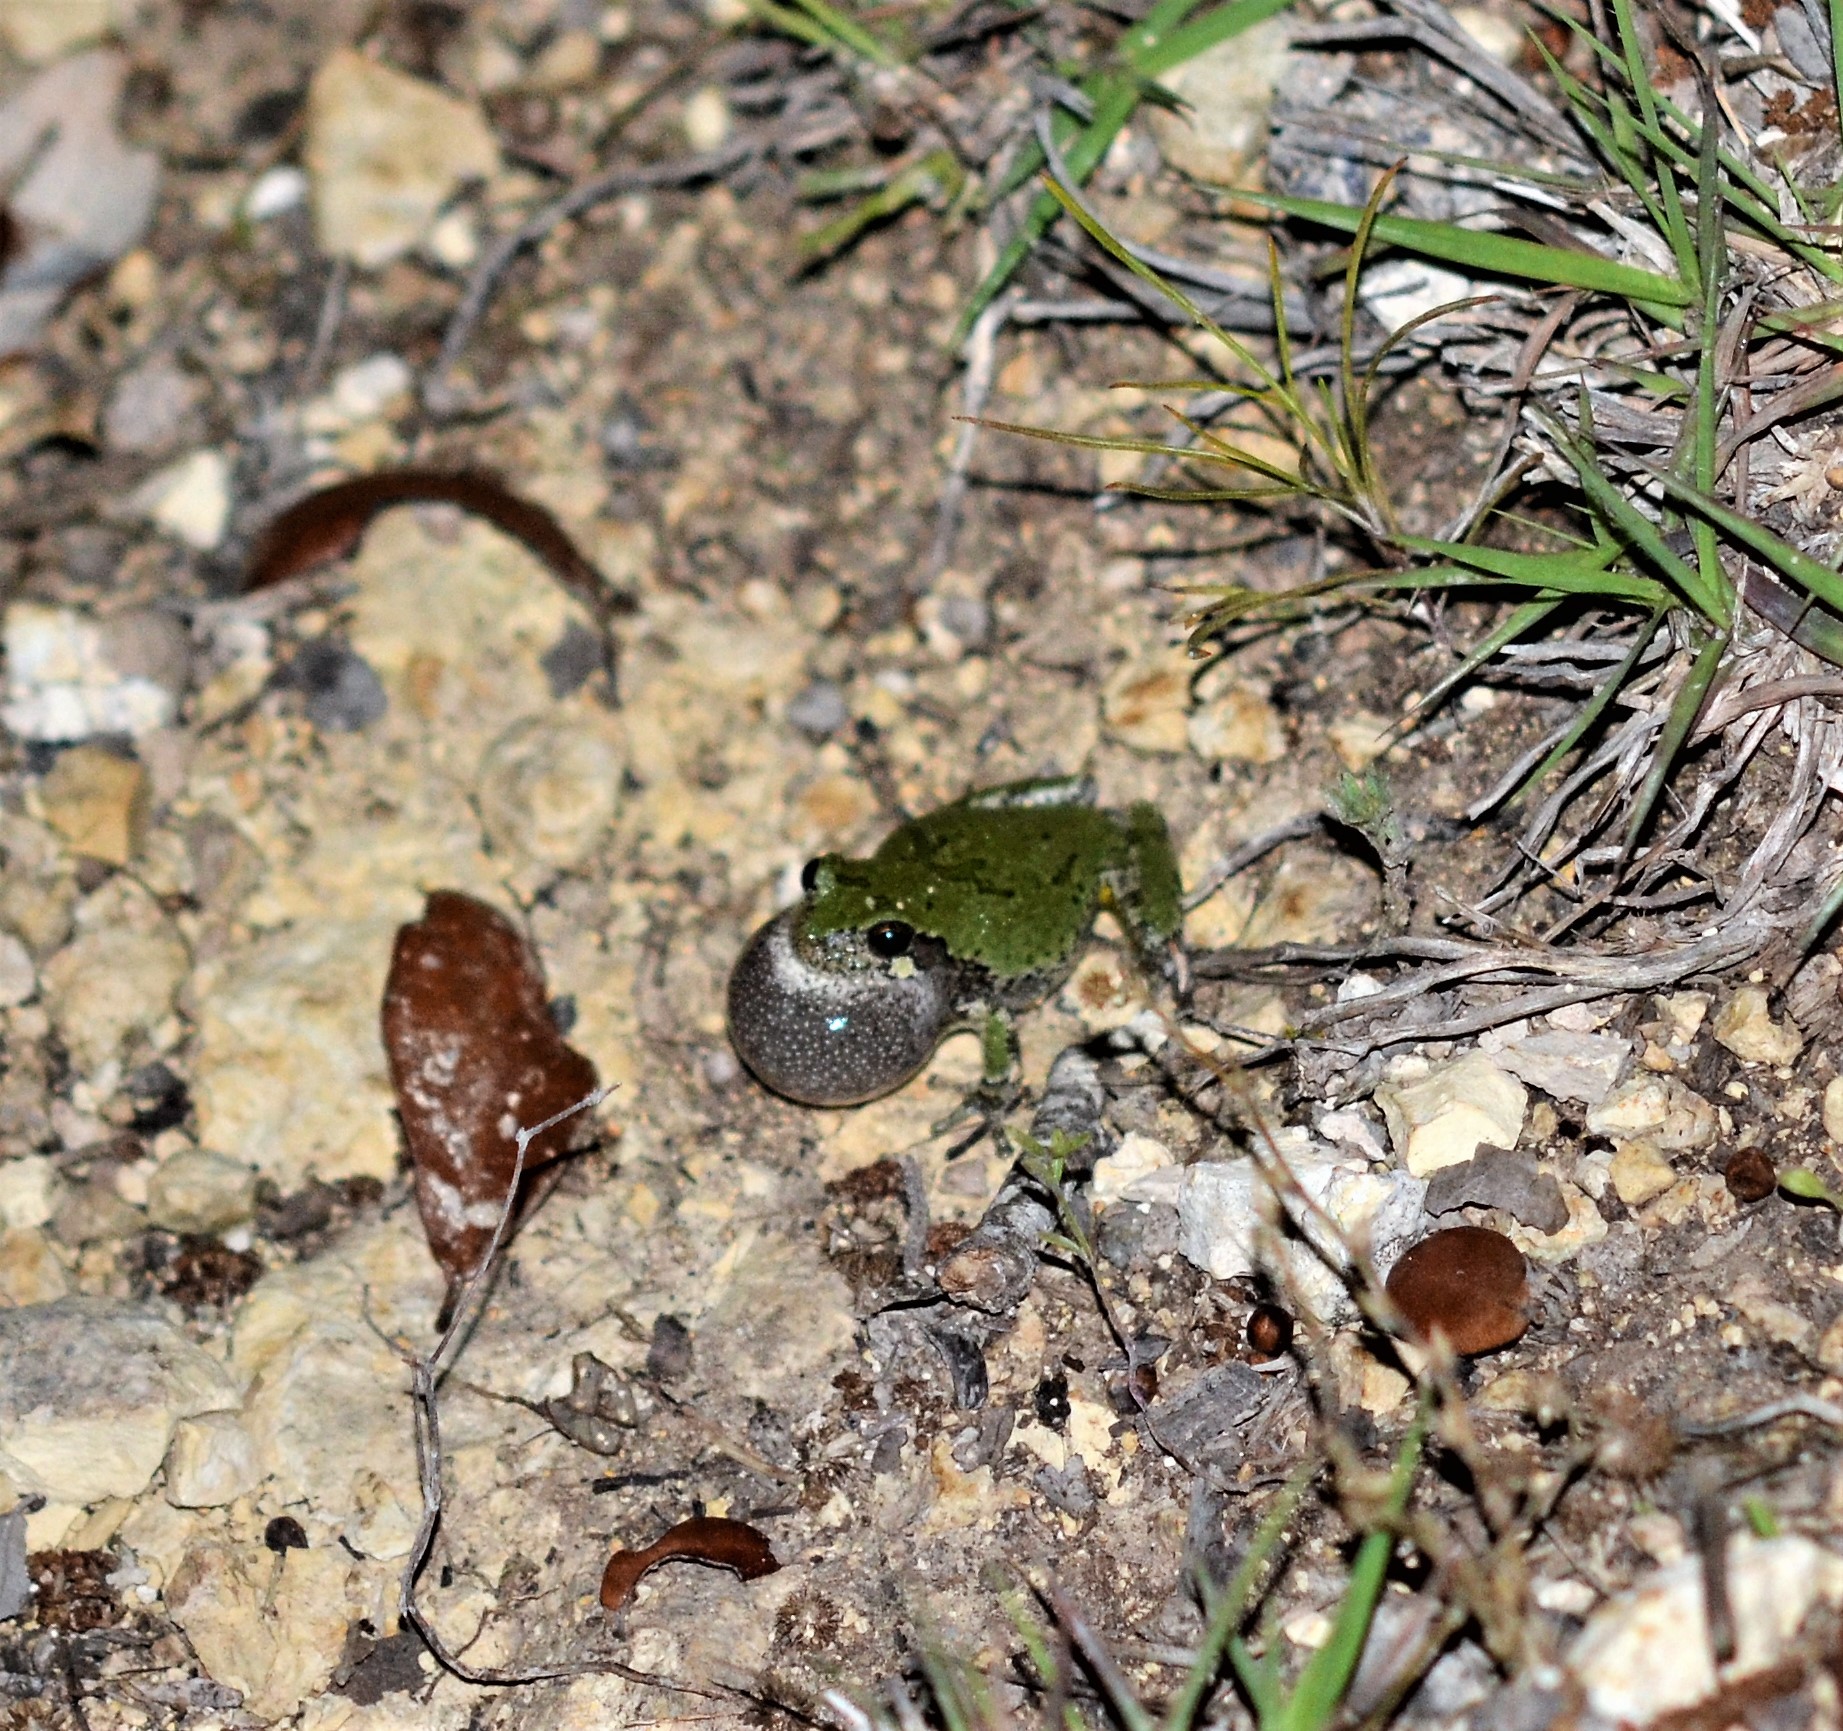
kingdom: Animalia
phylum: Chordata
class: Amphibia
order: Anura
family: Hylidae
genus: Dryophytes
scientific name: Dryophytes chrysoscelis
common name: Cope's gray treefrog
